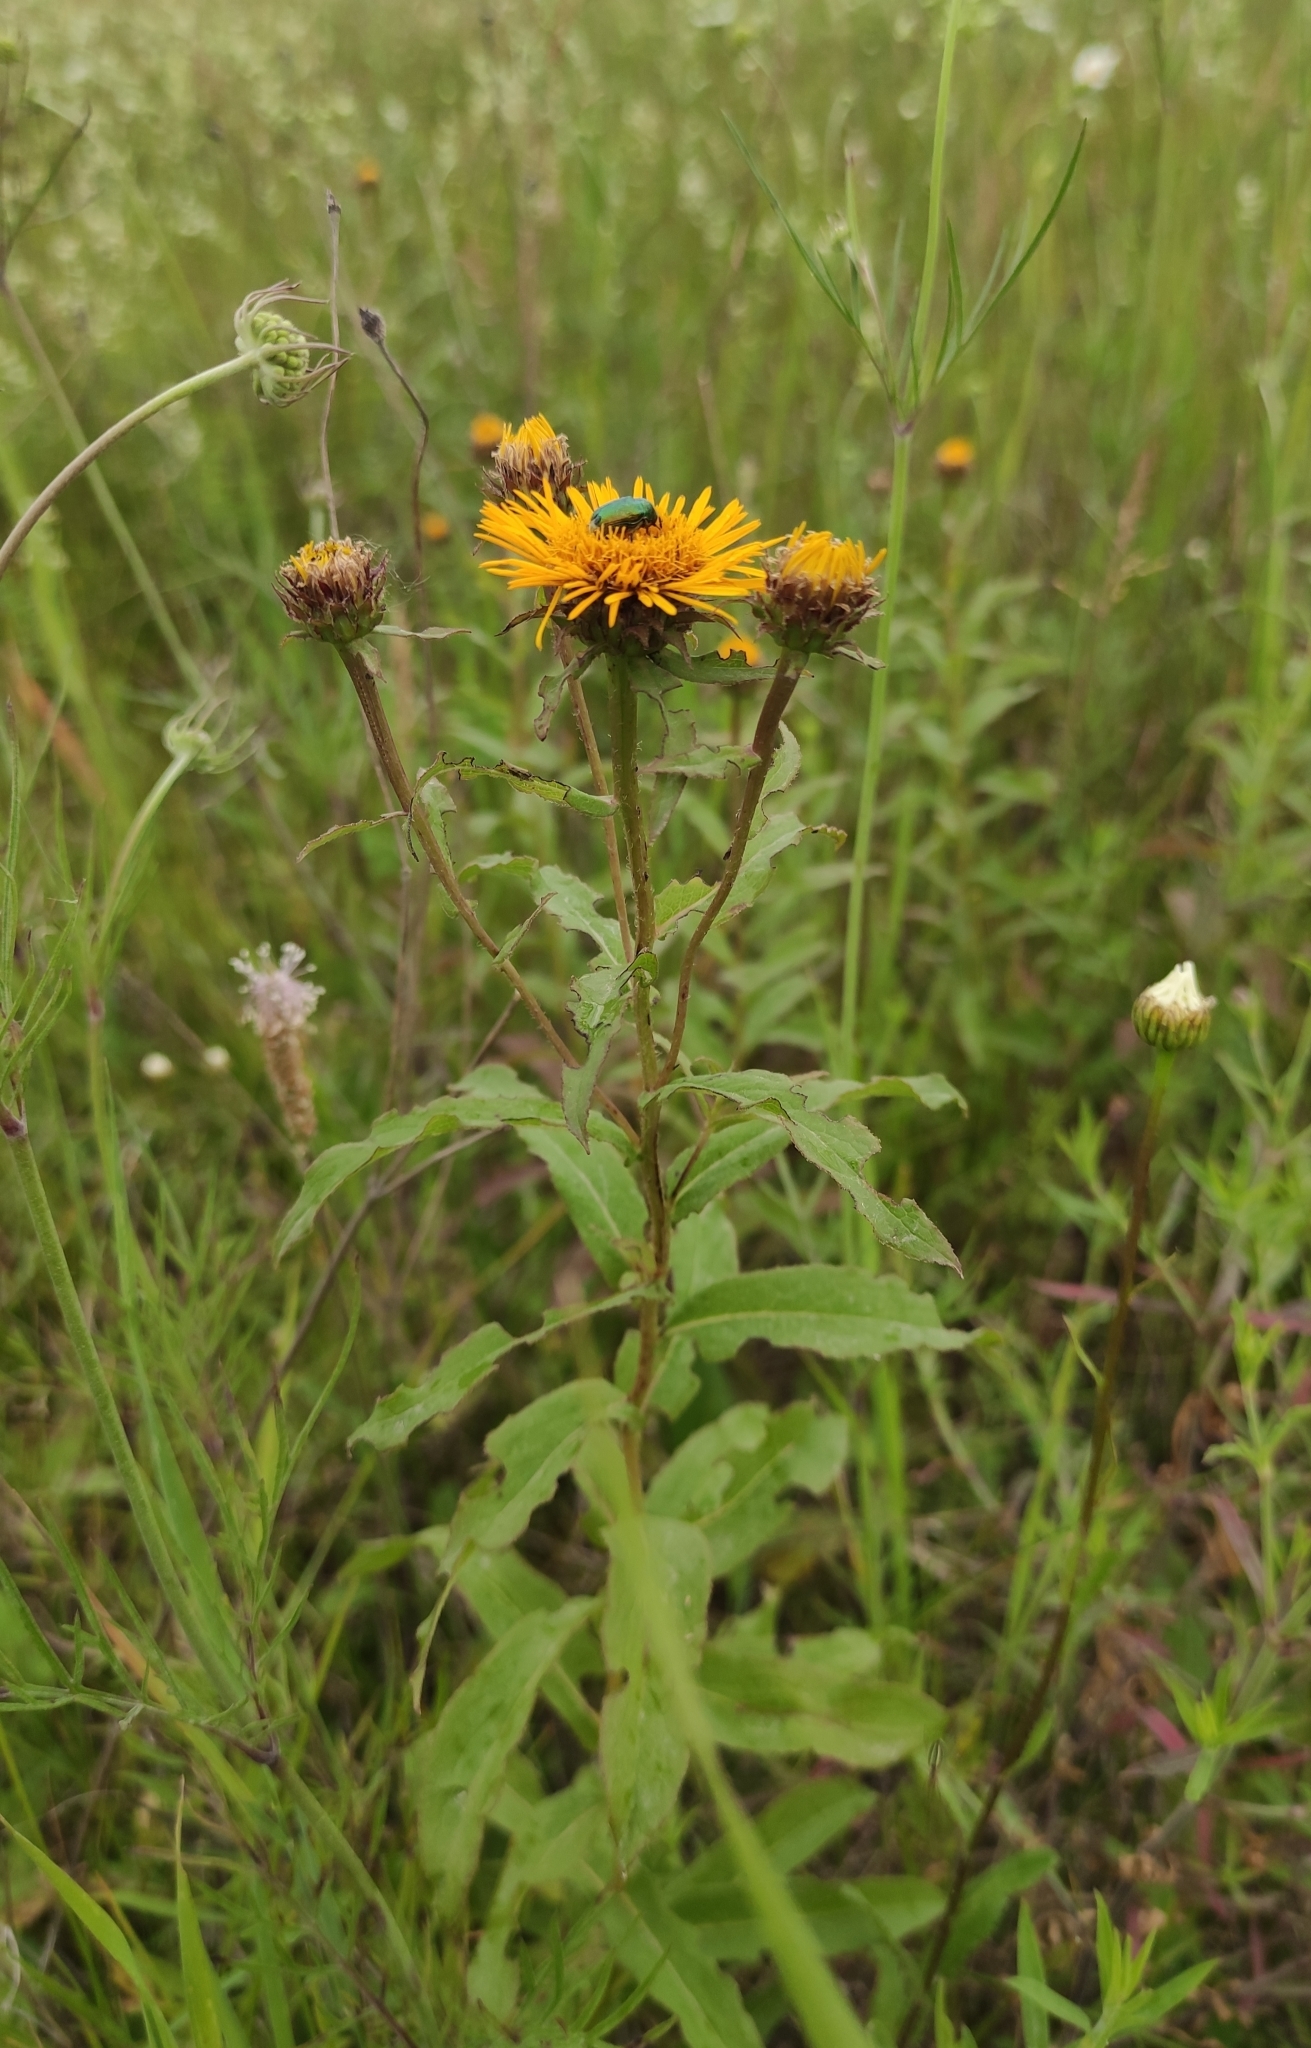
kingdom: Plantae
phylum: Tracheophyta
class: Magnoliopsida
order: Asterales
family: Asteraceae
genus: Pentanema
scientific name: Pentanema salicinum
